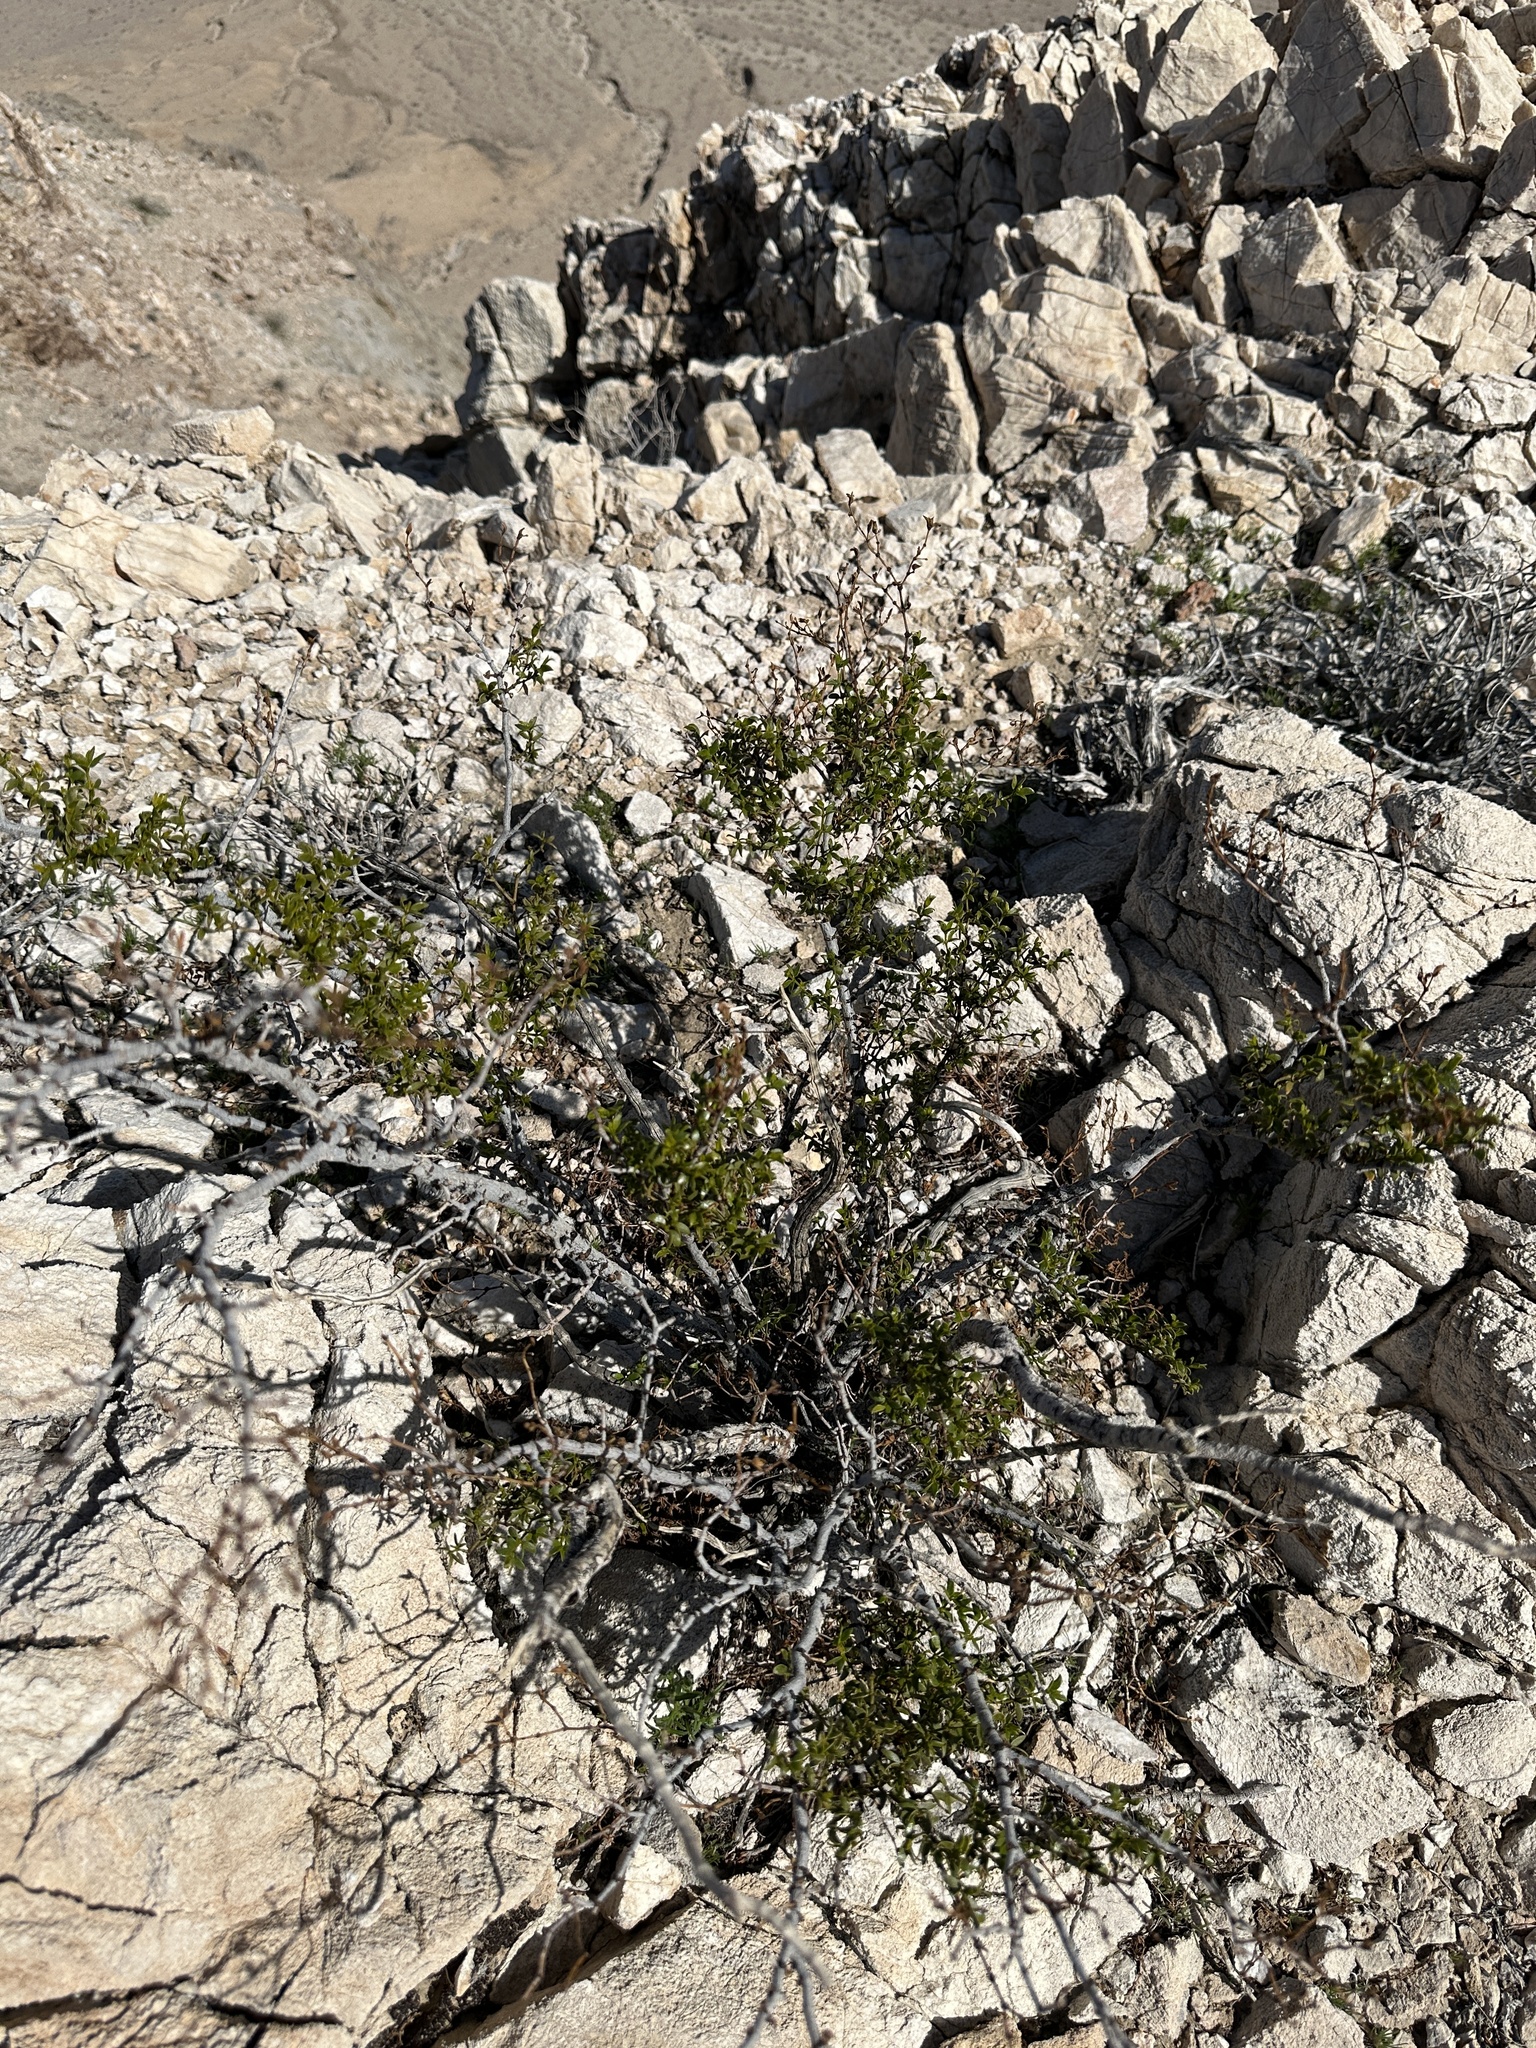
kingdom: Plantae
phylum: Tracheophyta
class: Magnoliopsida
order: Zygophyllales
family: Zygophyllaceae
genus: Larrea
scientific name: Larrea tridentata
